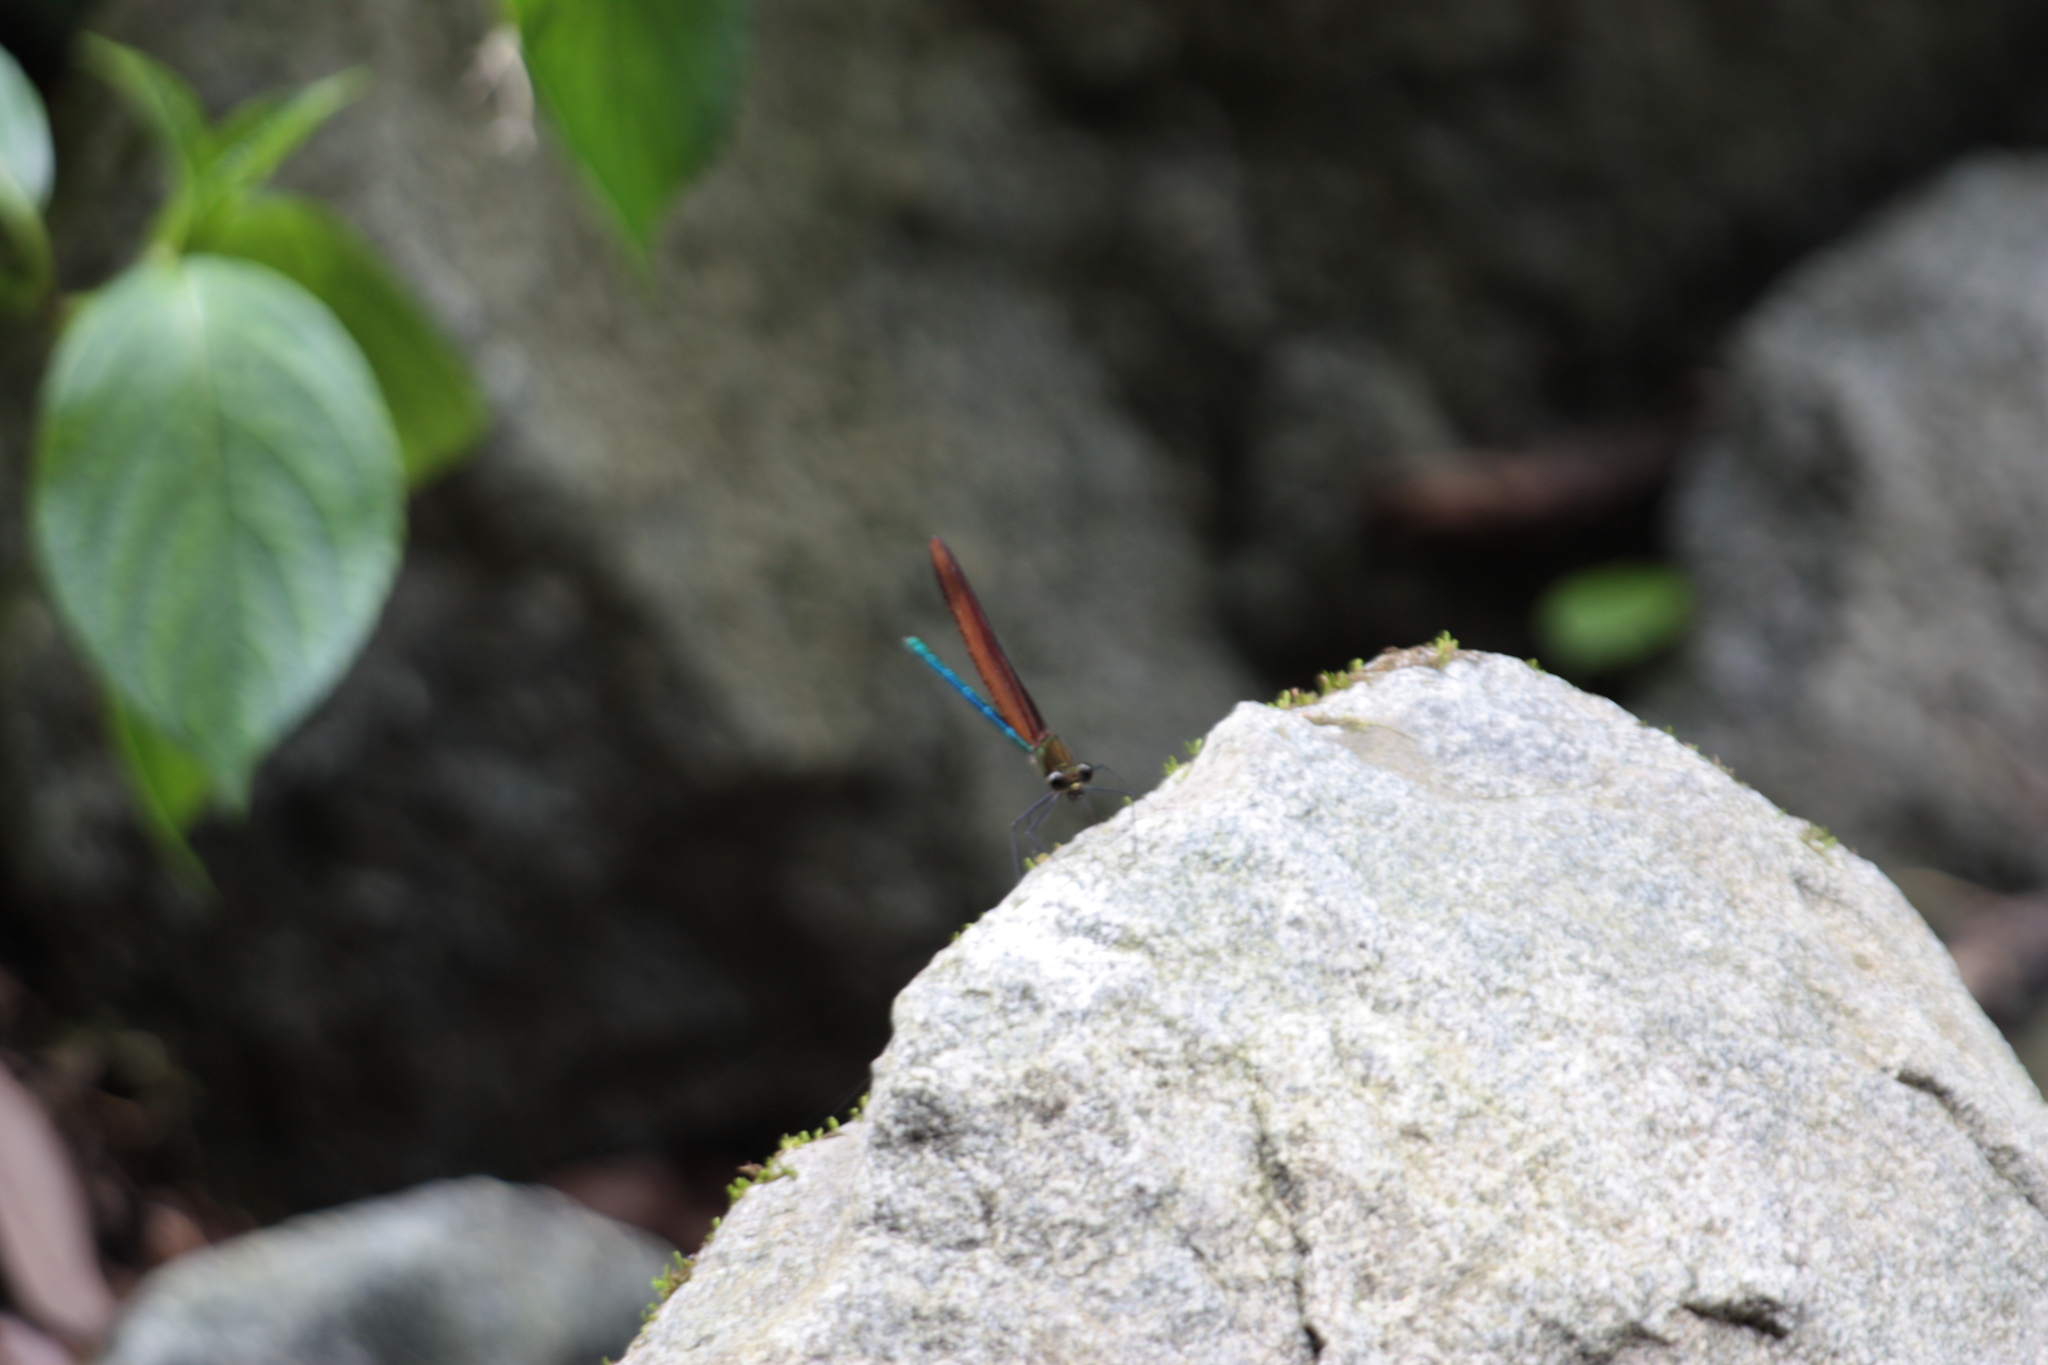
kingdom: Animalia
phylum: Arthropoda
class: Insecta
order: Odonata
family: Calopterygidae
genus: Calopteryx
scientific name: Calopteryx cornelia
